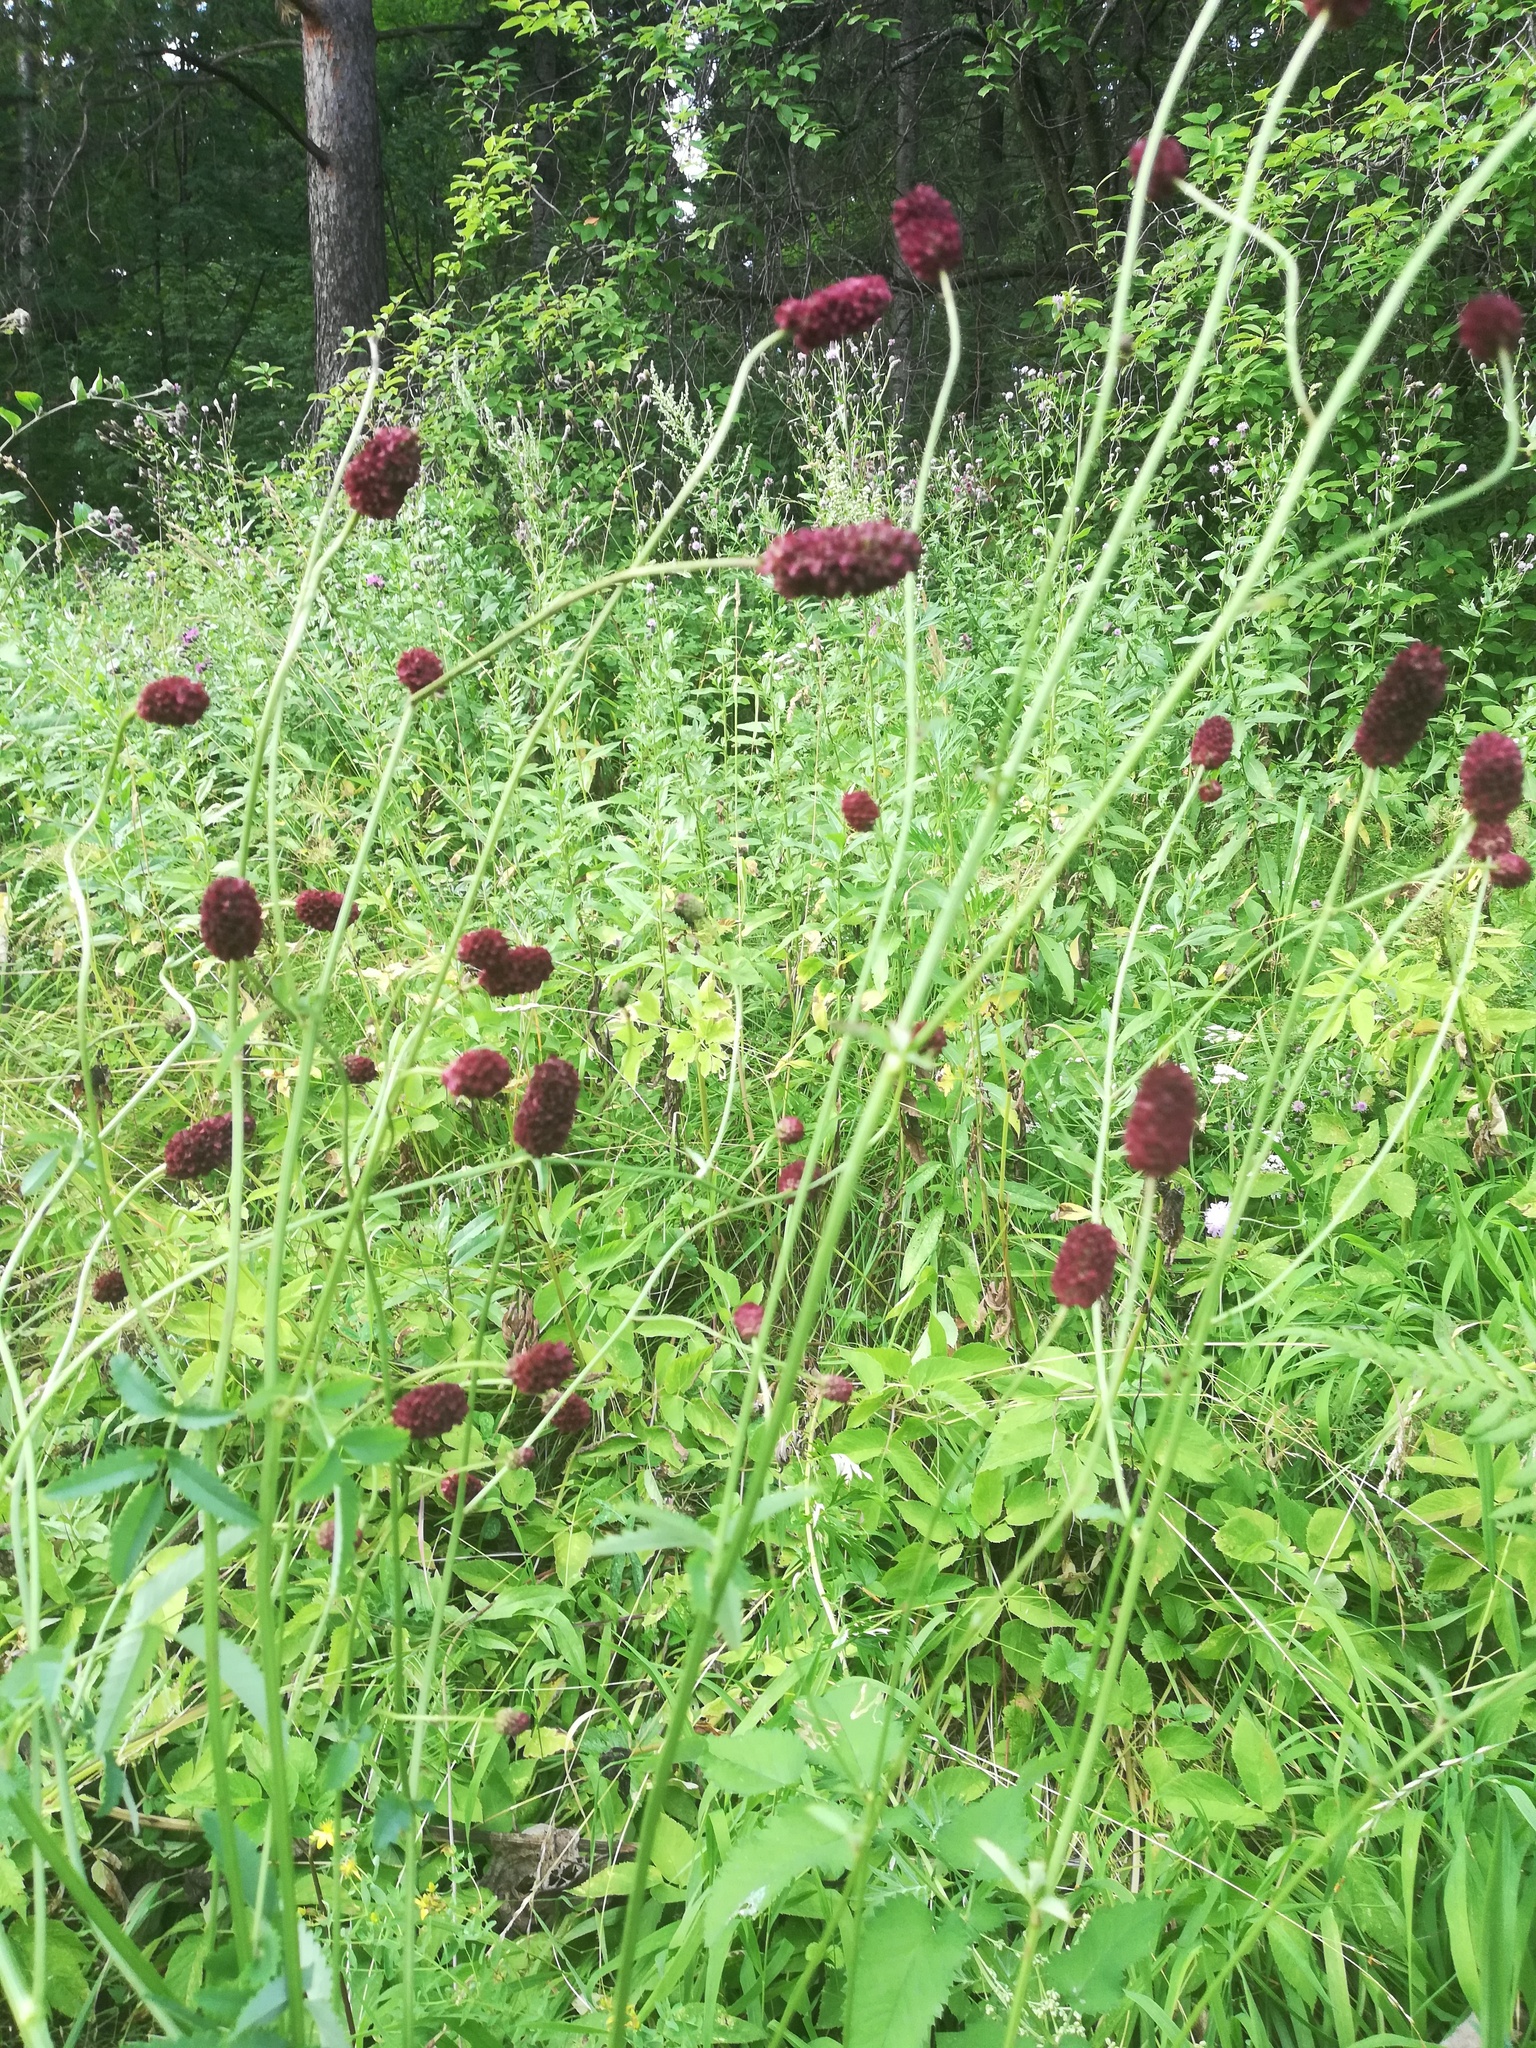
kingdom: Plantae
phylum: Tracheophyta
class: Magnoliopsida
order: Rosales
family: Rosaceae
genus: Sanguisorba
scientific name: Sanguisorba officinalis
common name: Great burnet
